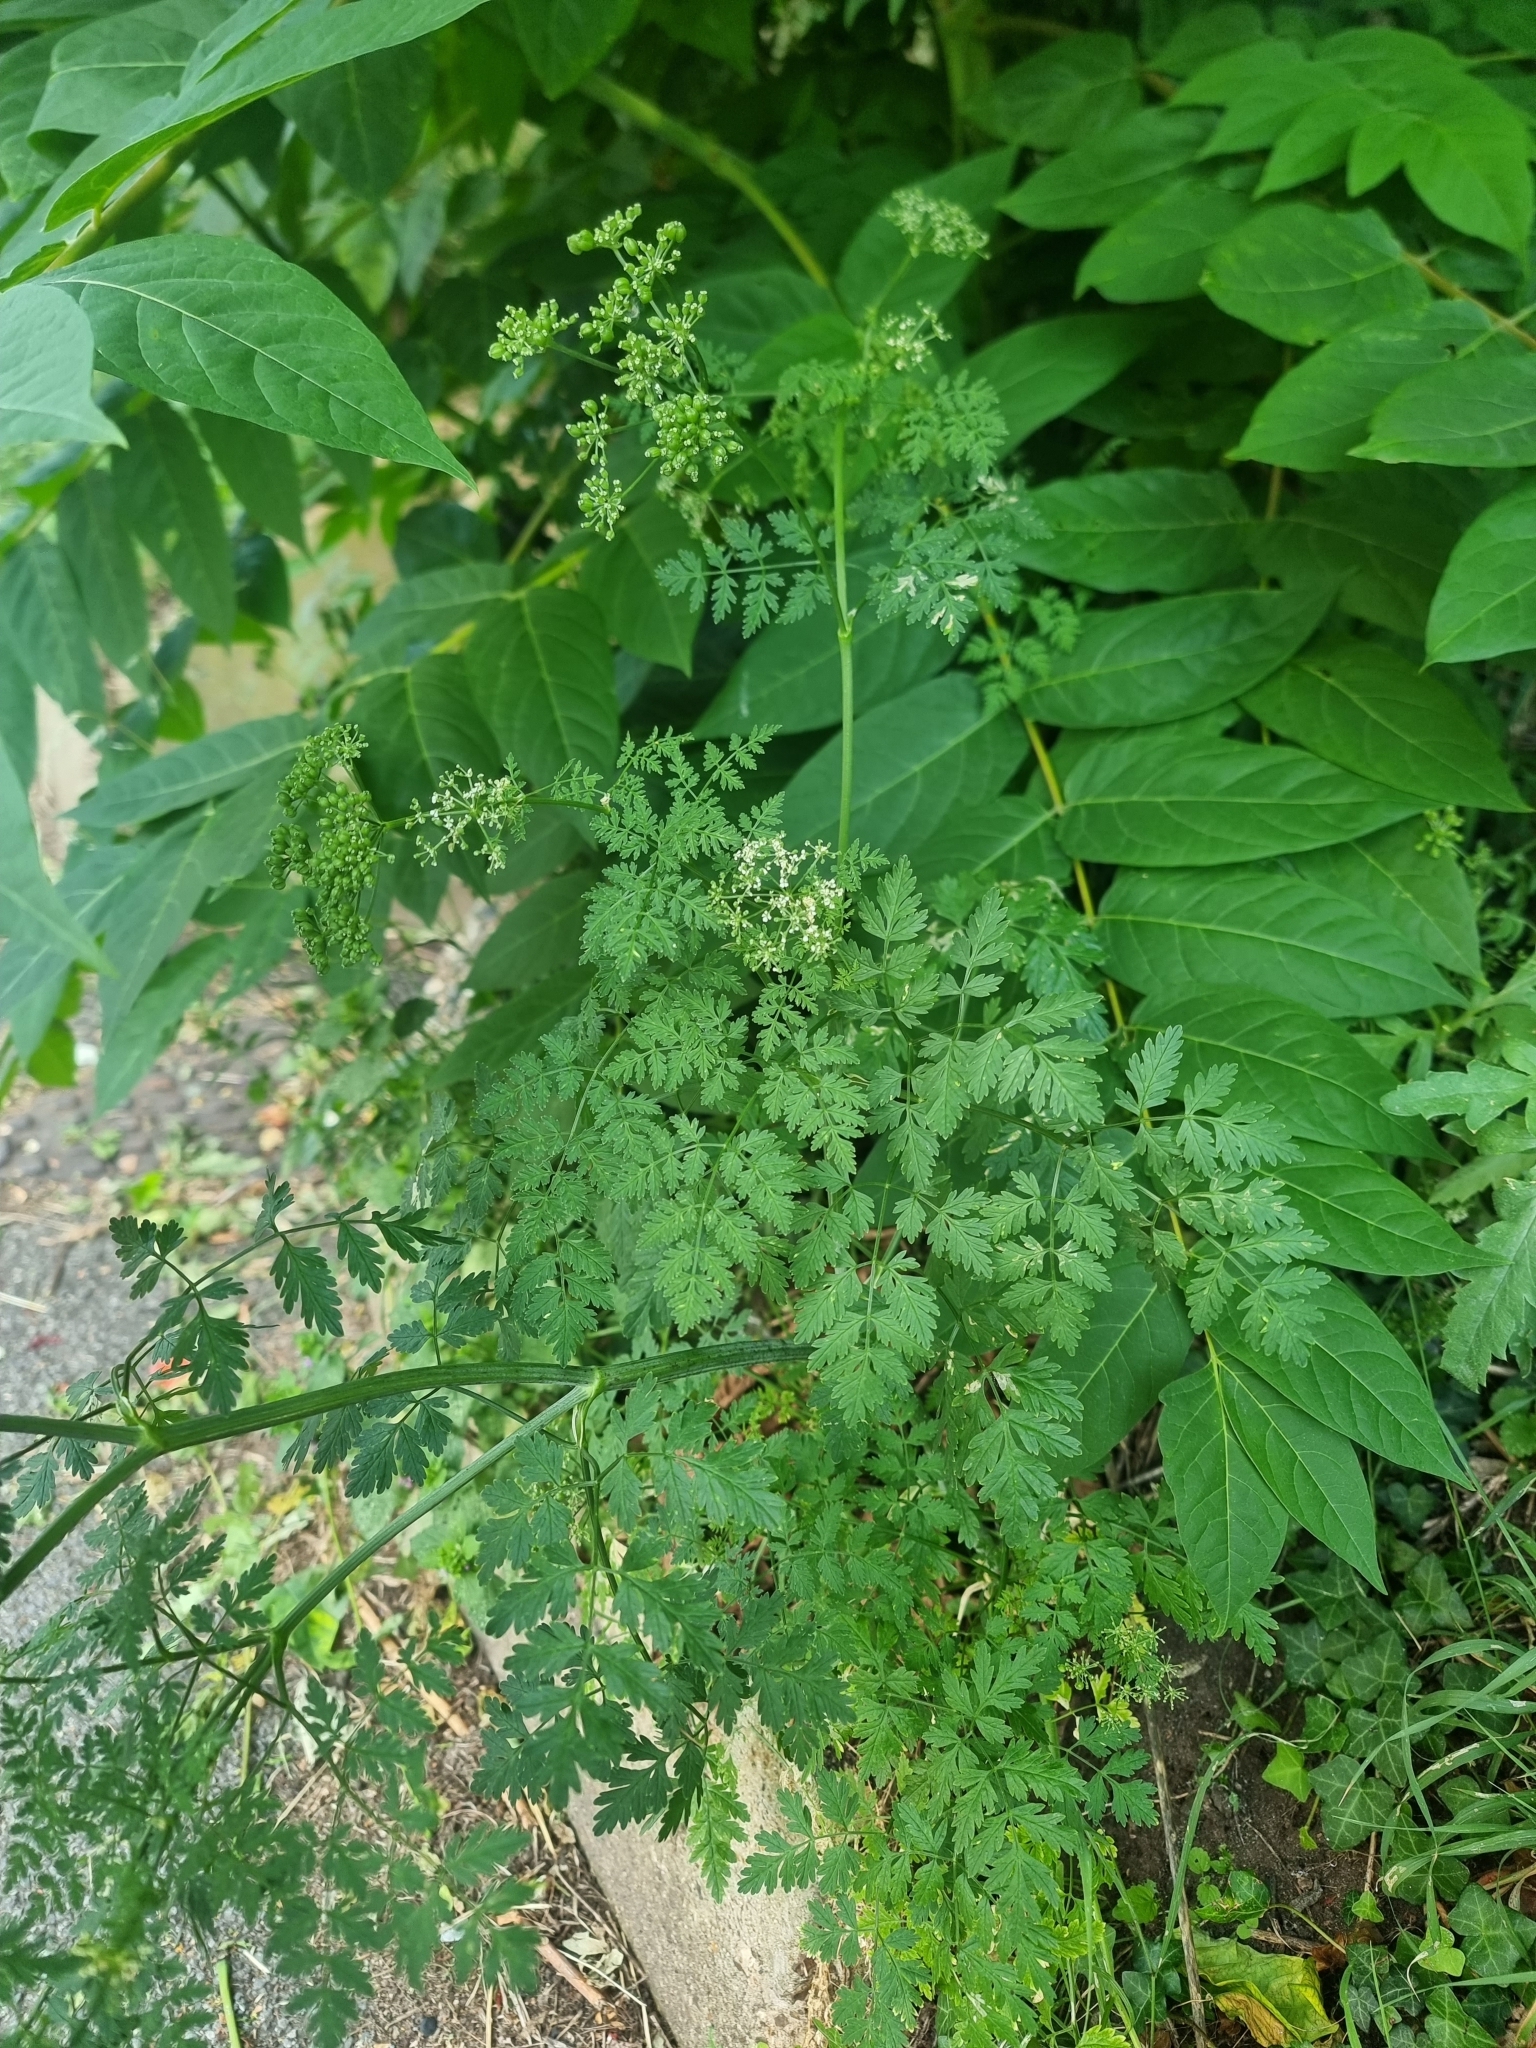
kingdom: Plantae
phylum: Tracheophyta
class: Magnoliopsida
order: Apiales
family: Apiaceae
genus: Conium
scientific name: Conium maculatum
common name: Hemlock
